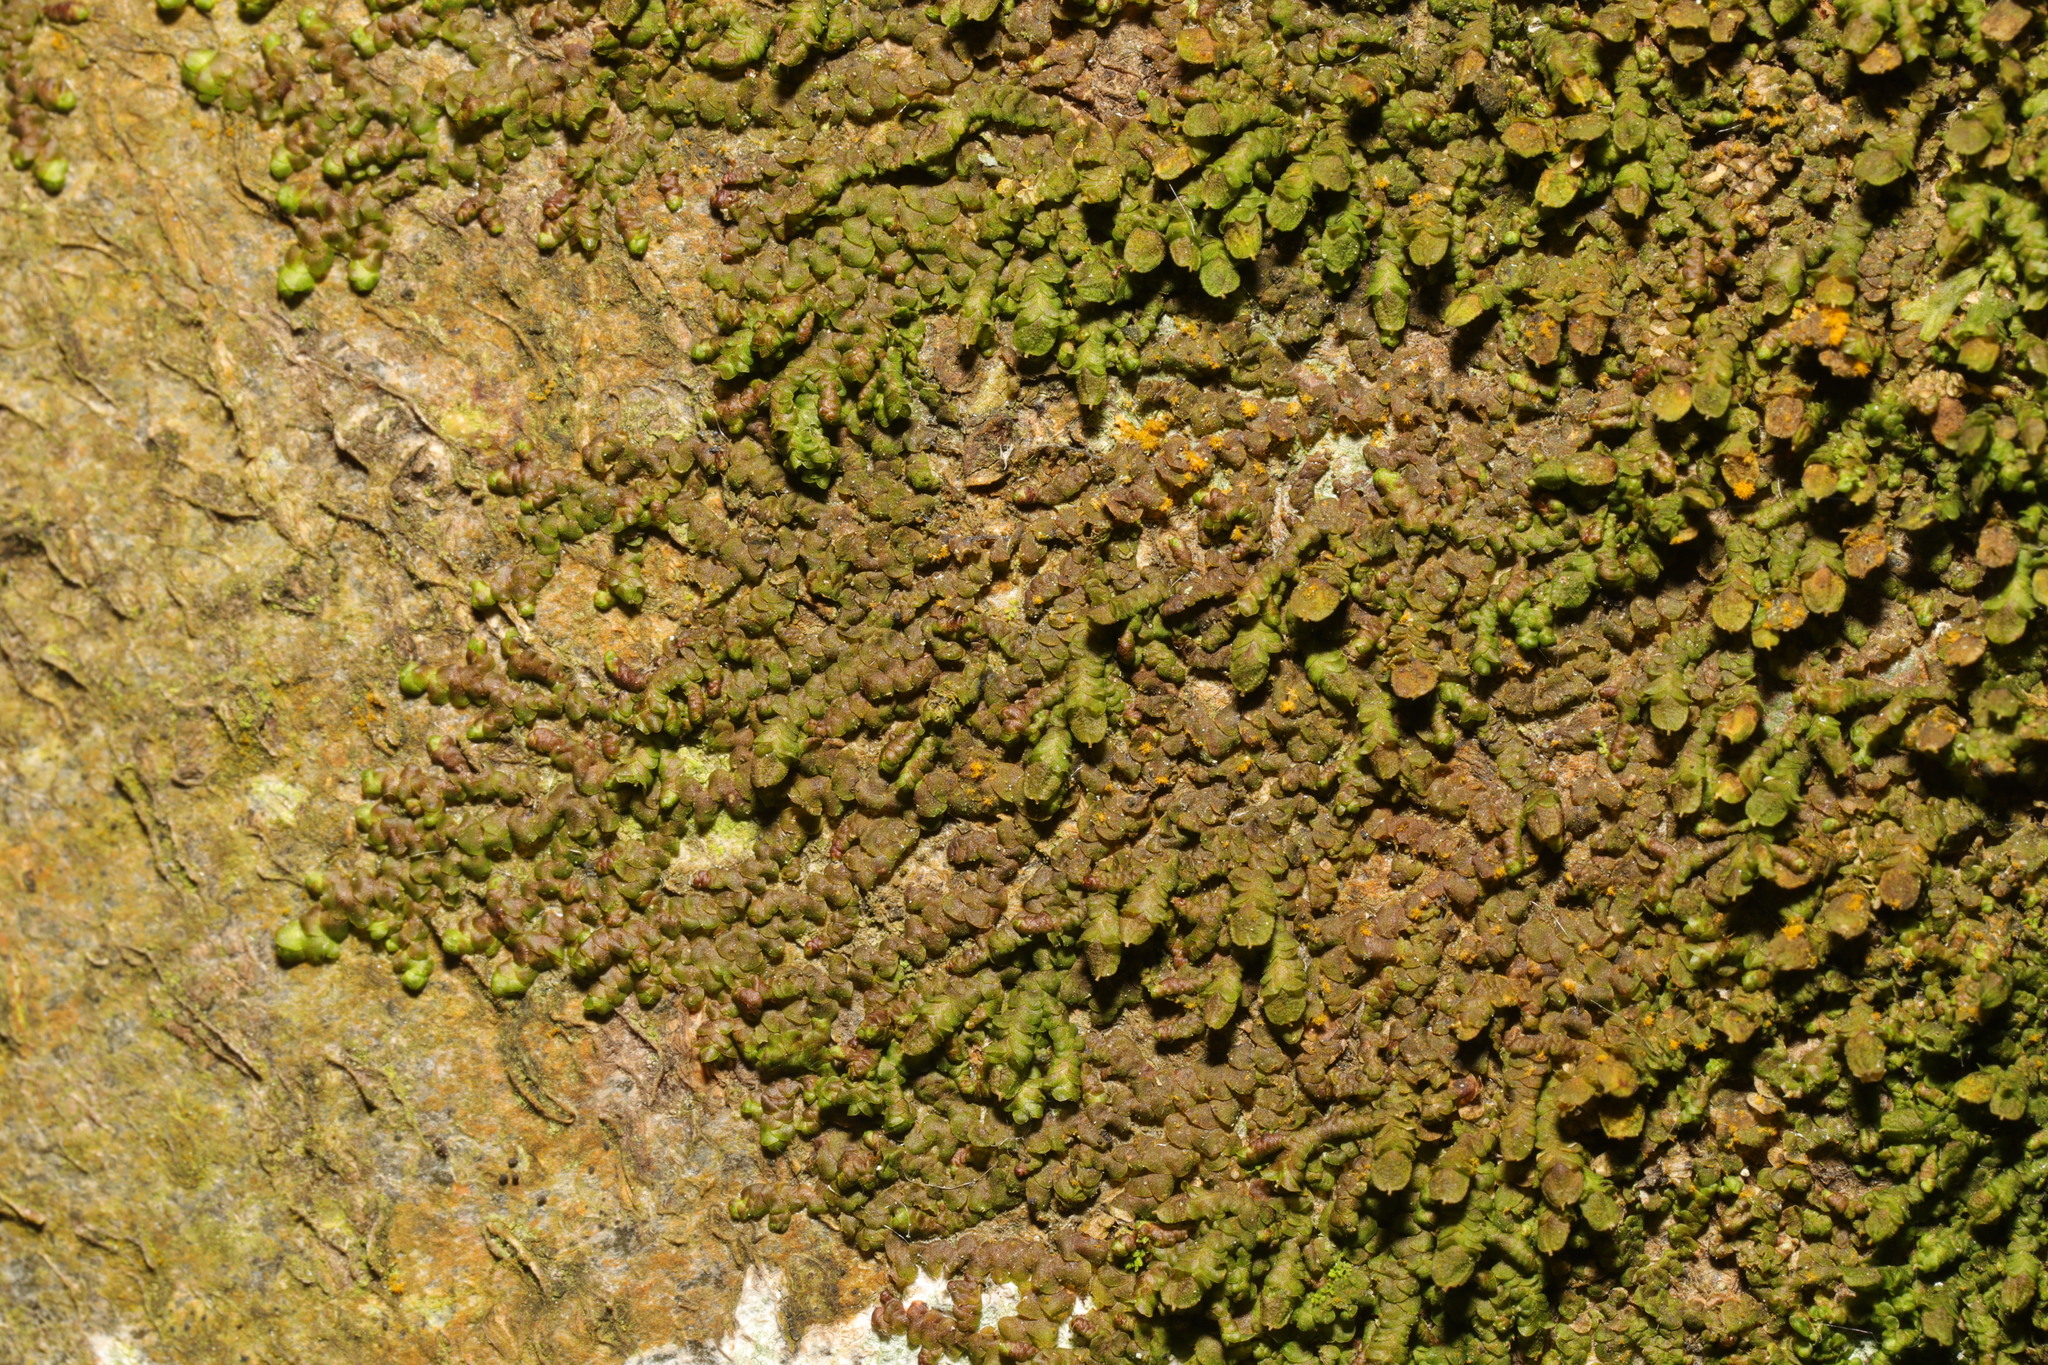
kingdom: Plantae
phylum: Marchantiophyta
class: Jungermanniopsida
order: Porellales
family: Frullaniaceae
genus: Frullania
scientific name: Frullania dilatata
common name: Dilated scalewort
